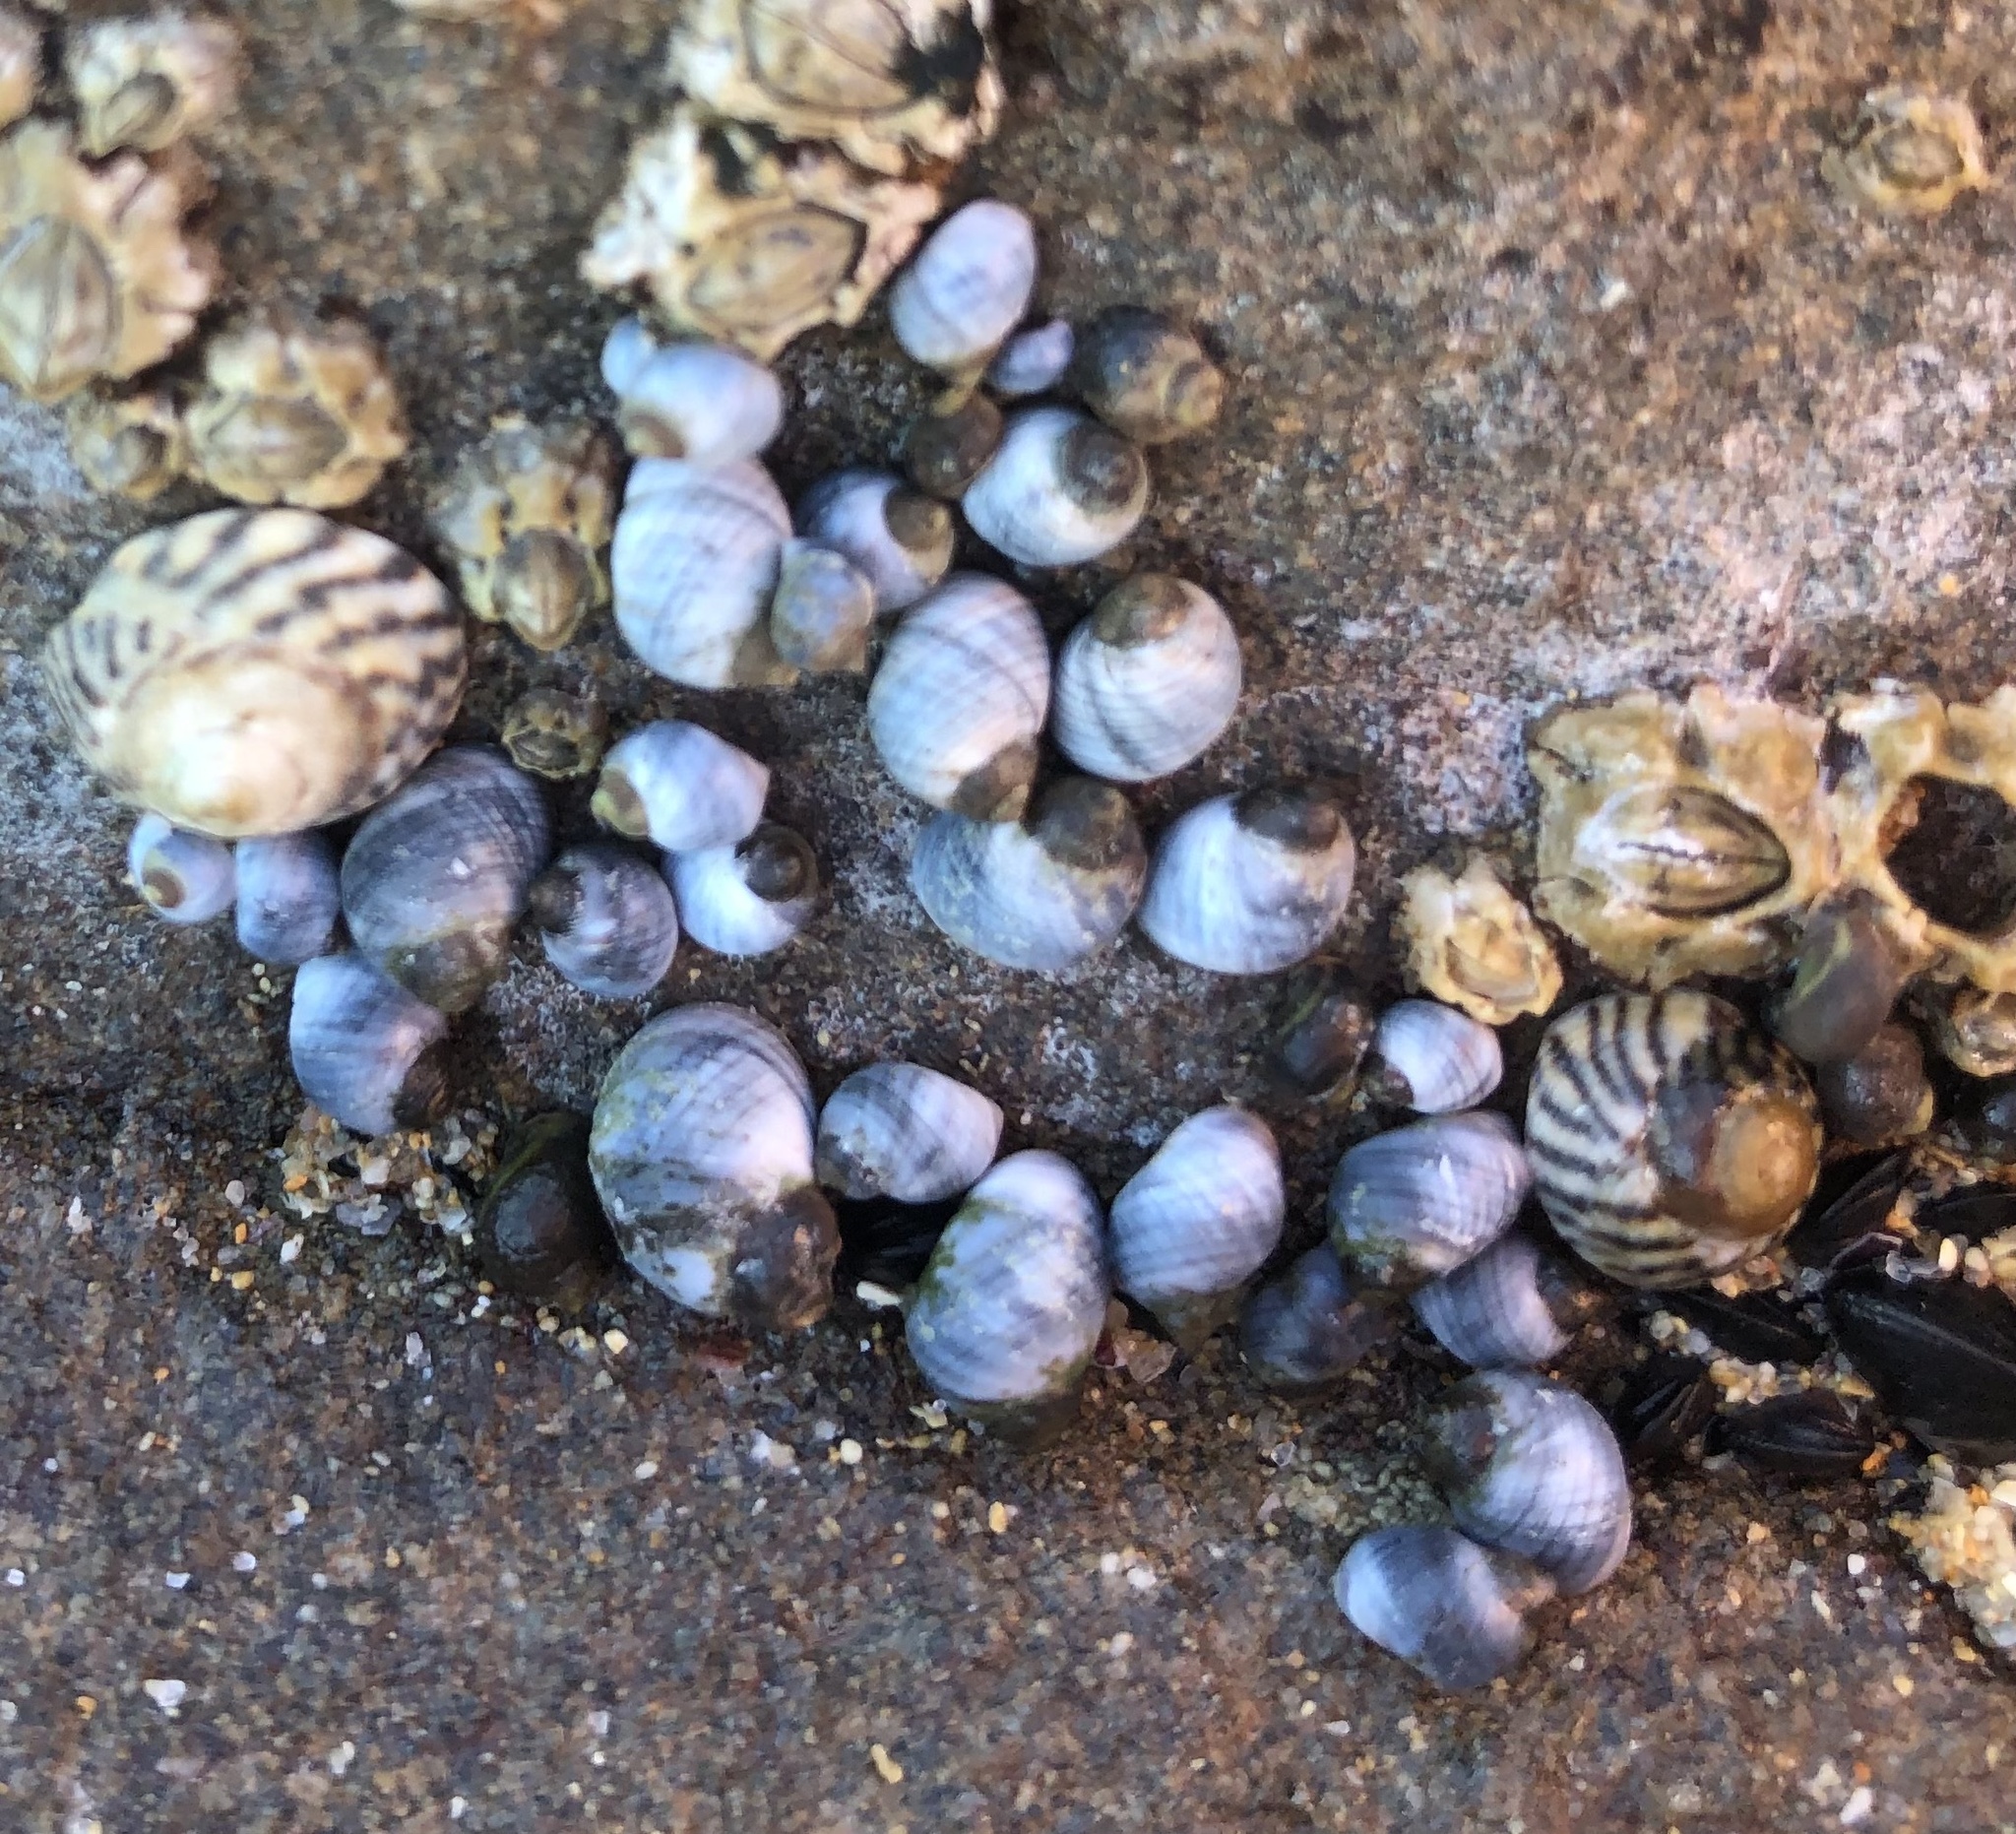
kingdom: Animalia
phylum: Mollusca
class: Gastropoda
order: Littorinimorpha
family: Littorinidae
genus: Austrolittorina
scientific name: Austrolittorina unifasciata
